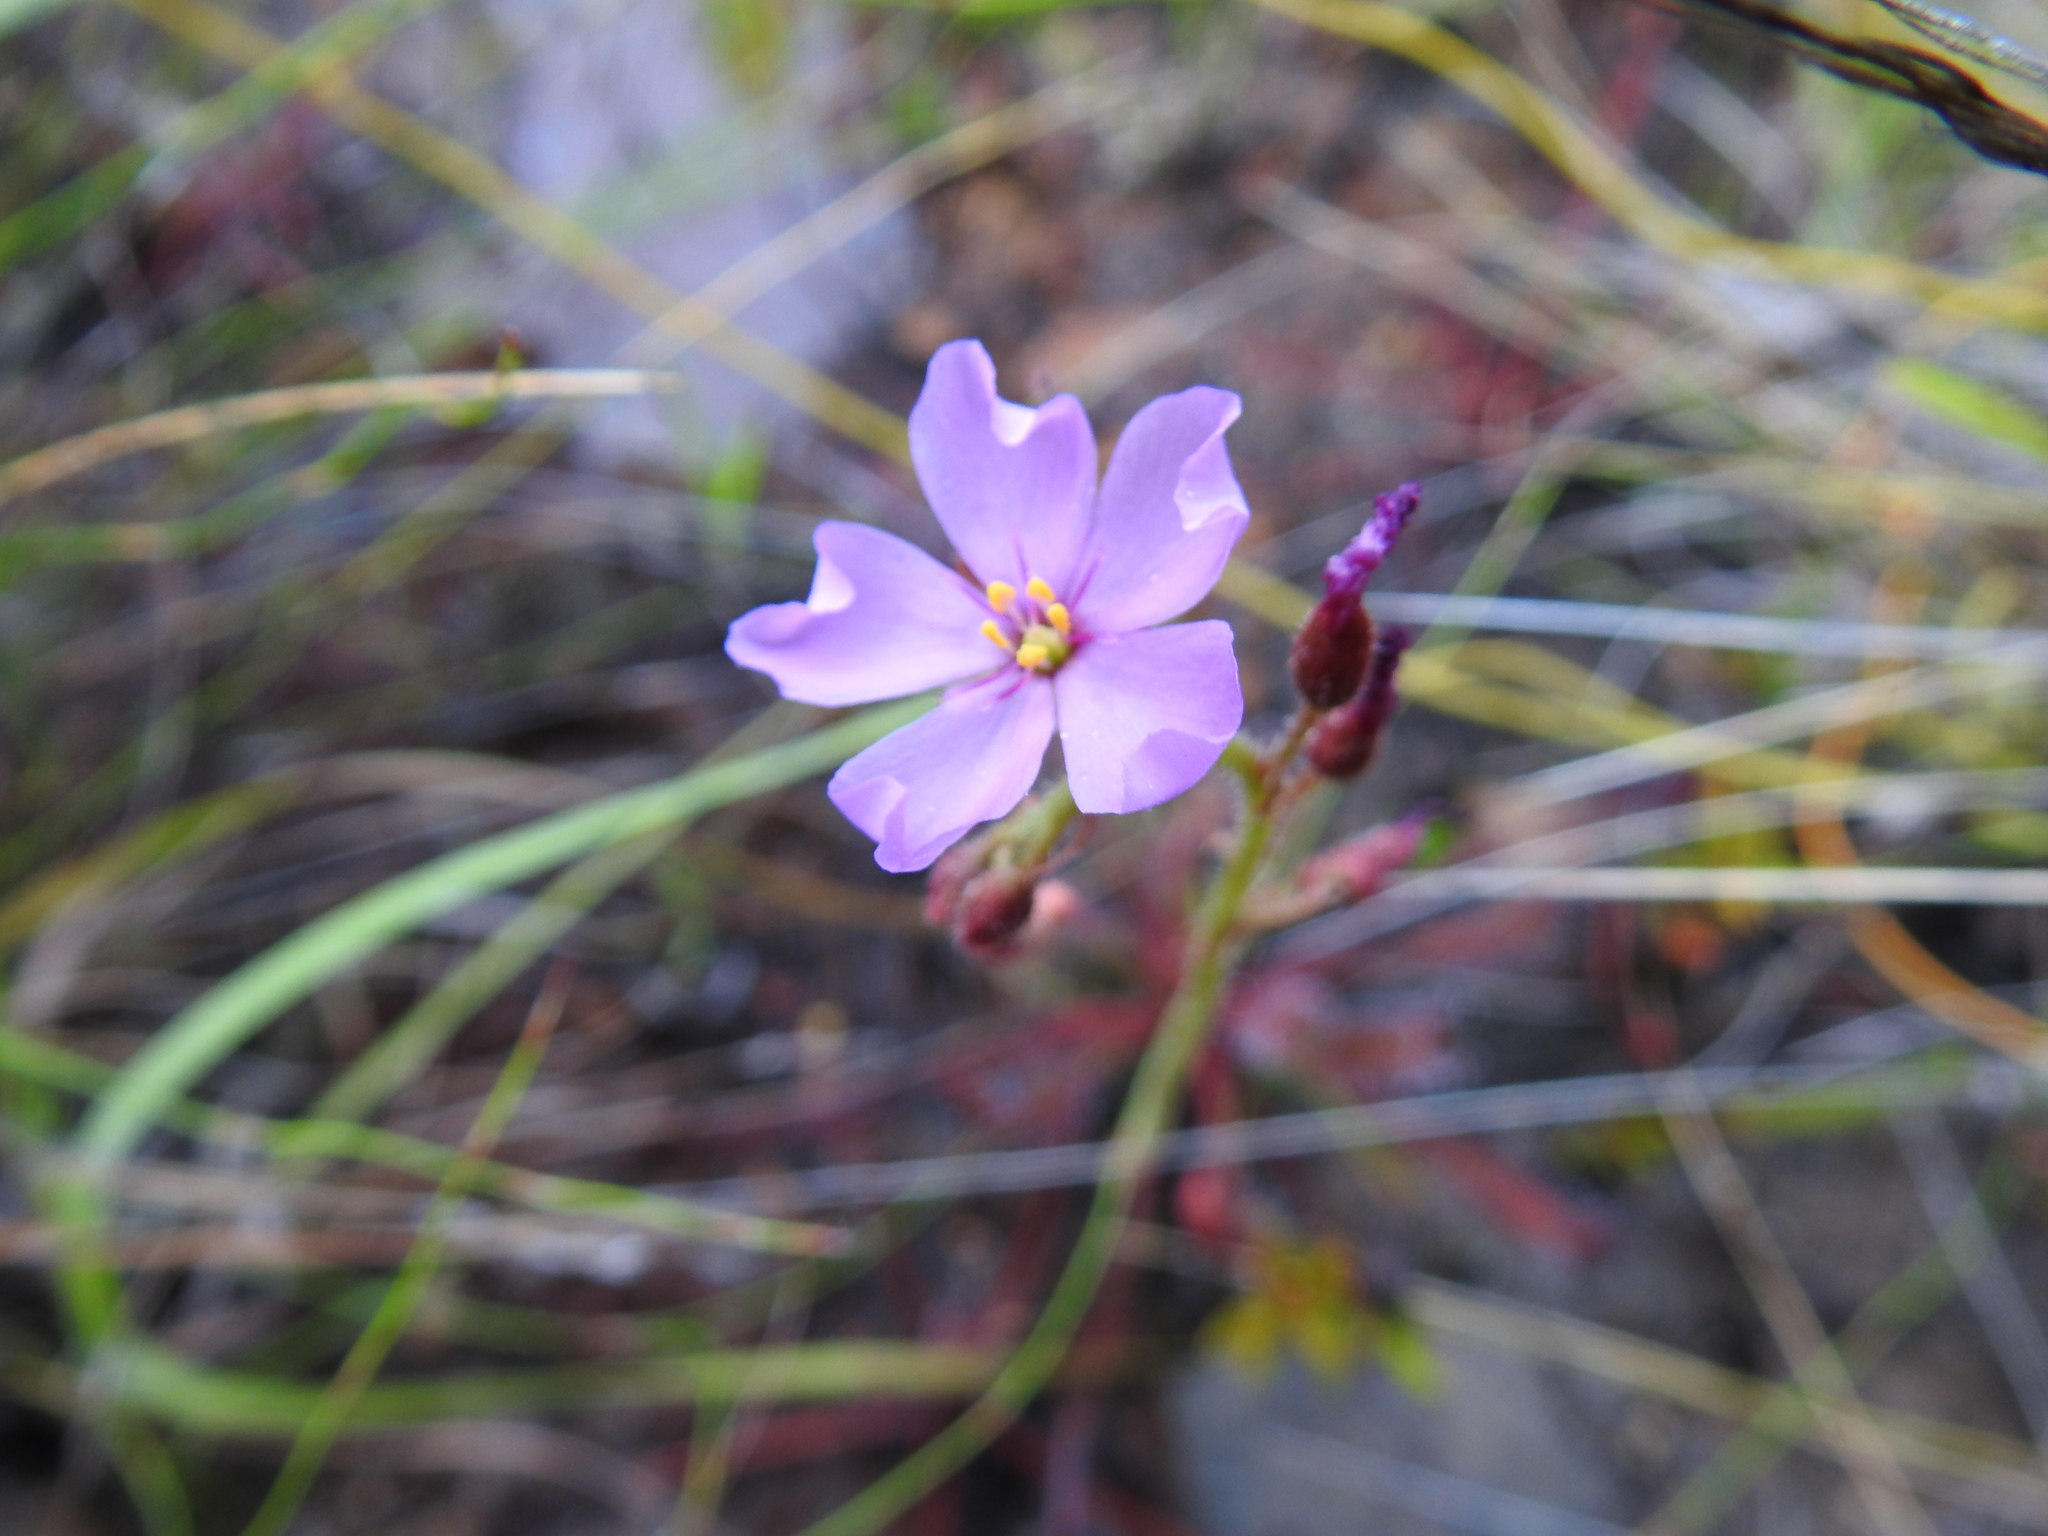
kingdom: Plantae
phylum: Tracheophyta
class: Magnoliopsida
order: Caryophyllales
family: Droseraceae
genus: Drosera
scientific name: Drosera capensis
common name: Cape sundew
